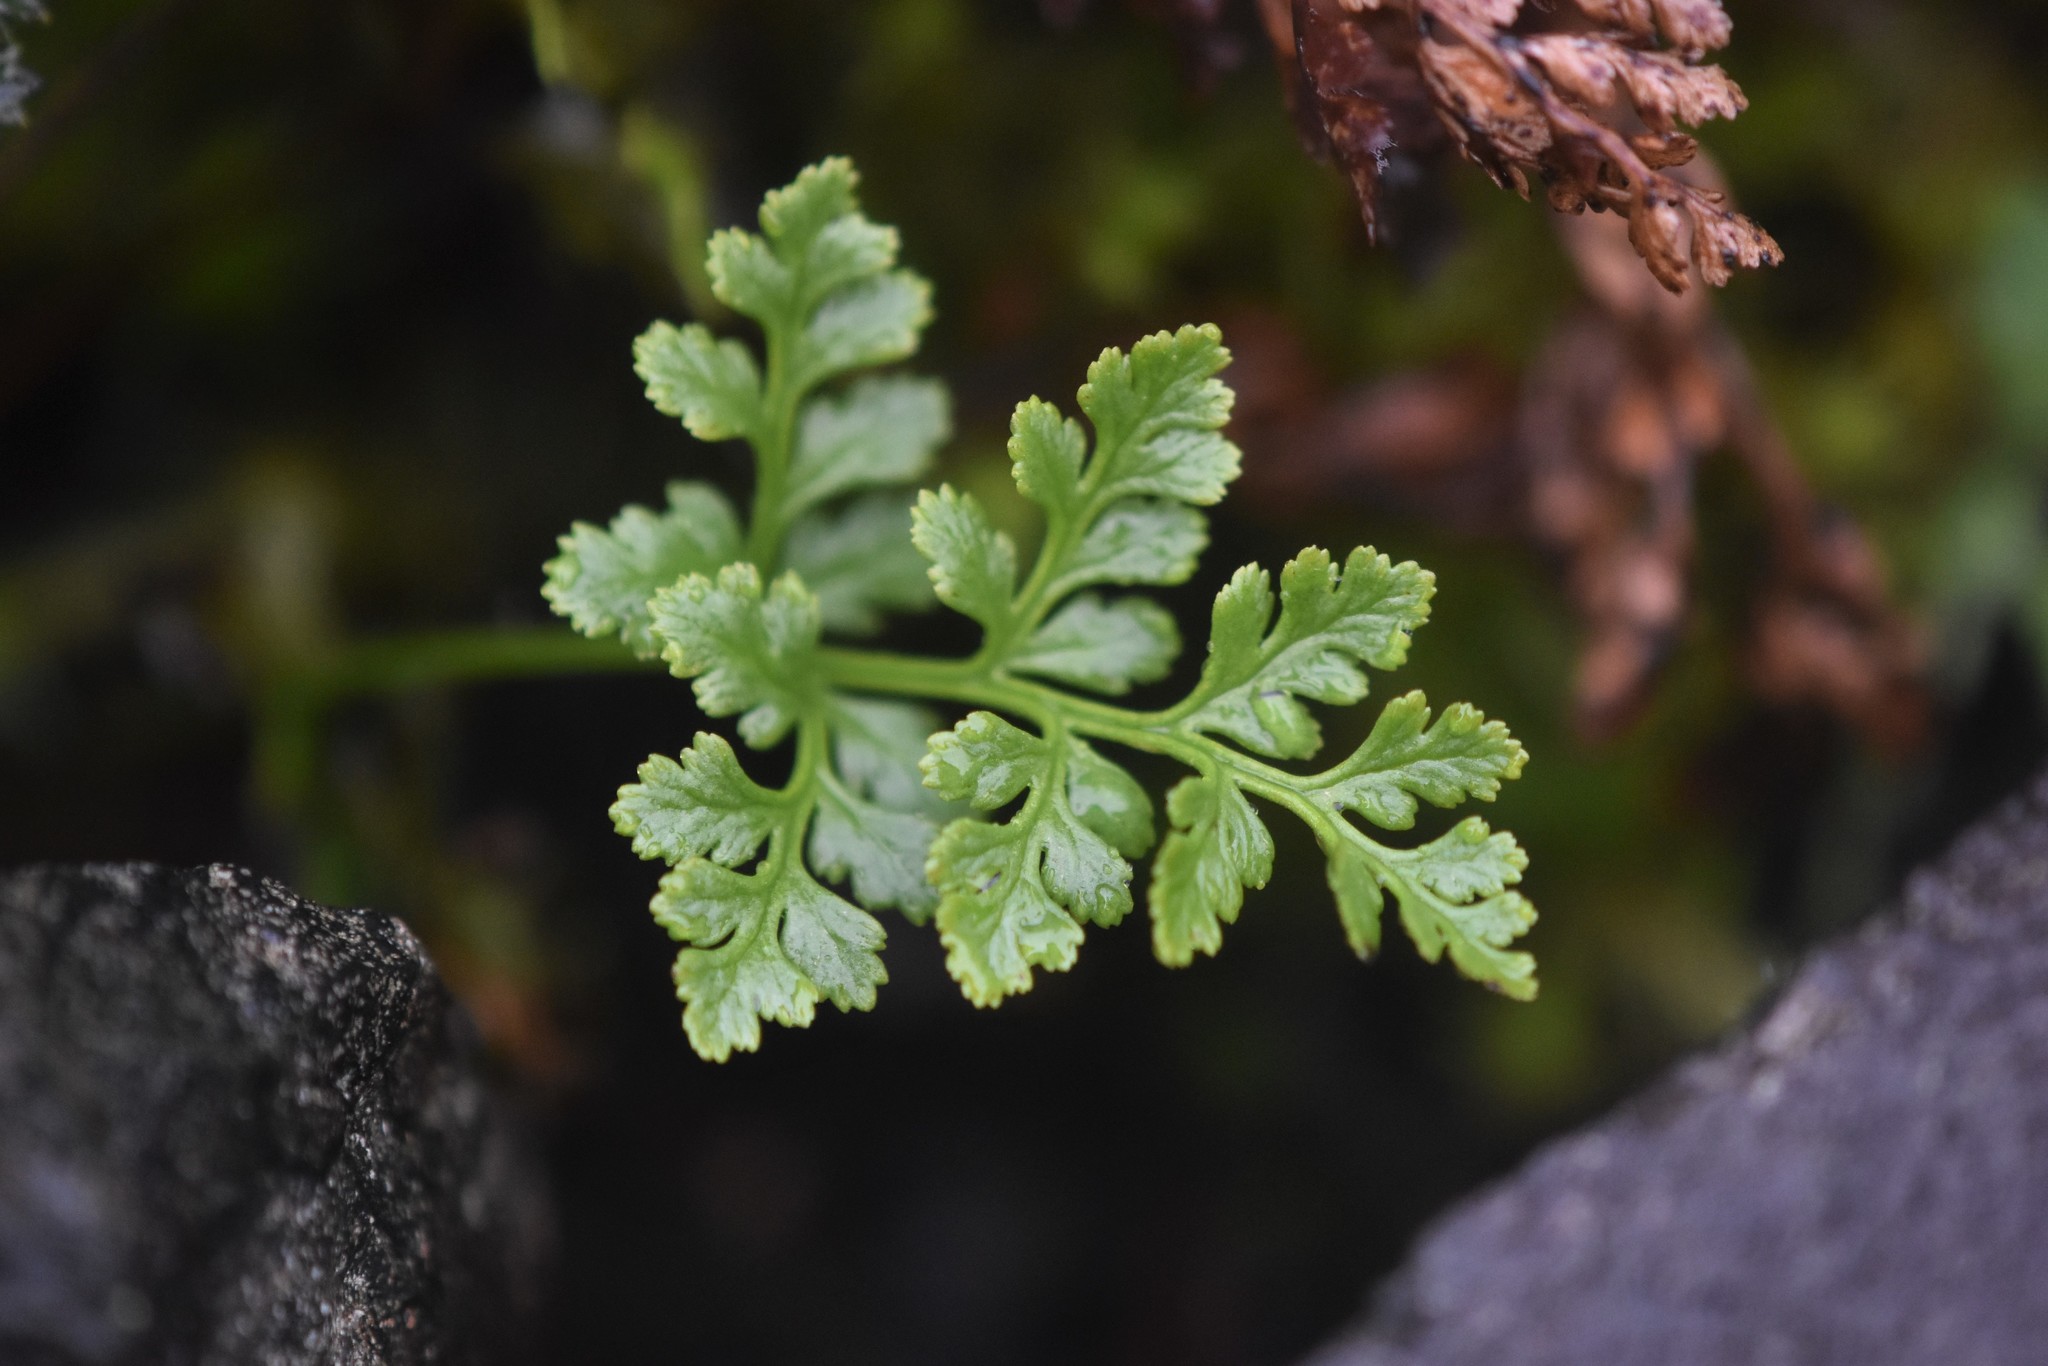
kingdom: Plantae
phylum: Tracheophyta
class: Polypodiopsida
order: Polypodiales
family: Pteridaceae
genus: Cryptogramma
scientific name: Cryptogramma acrostichoides
